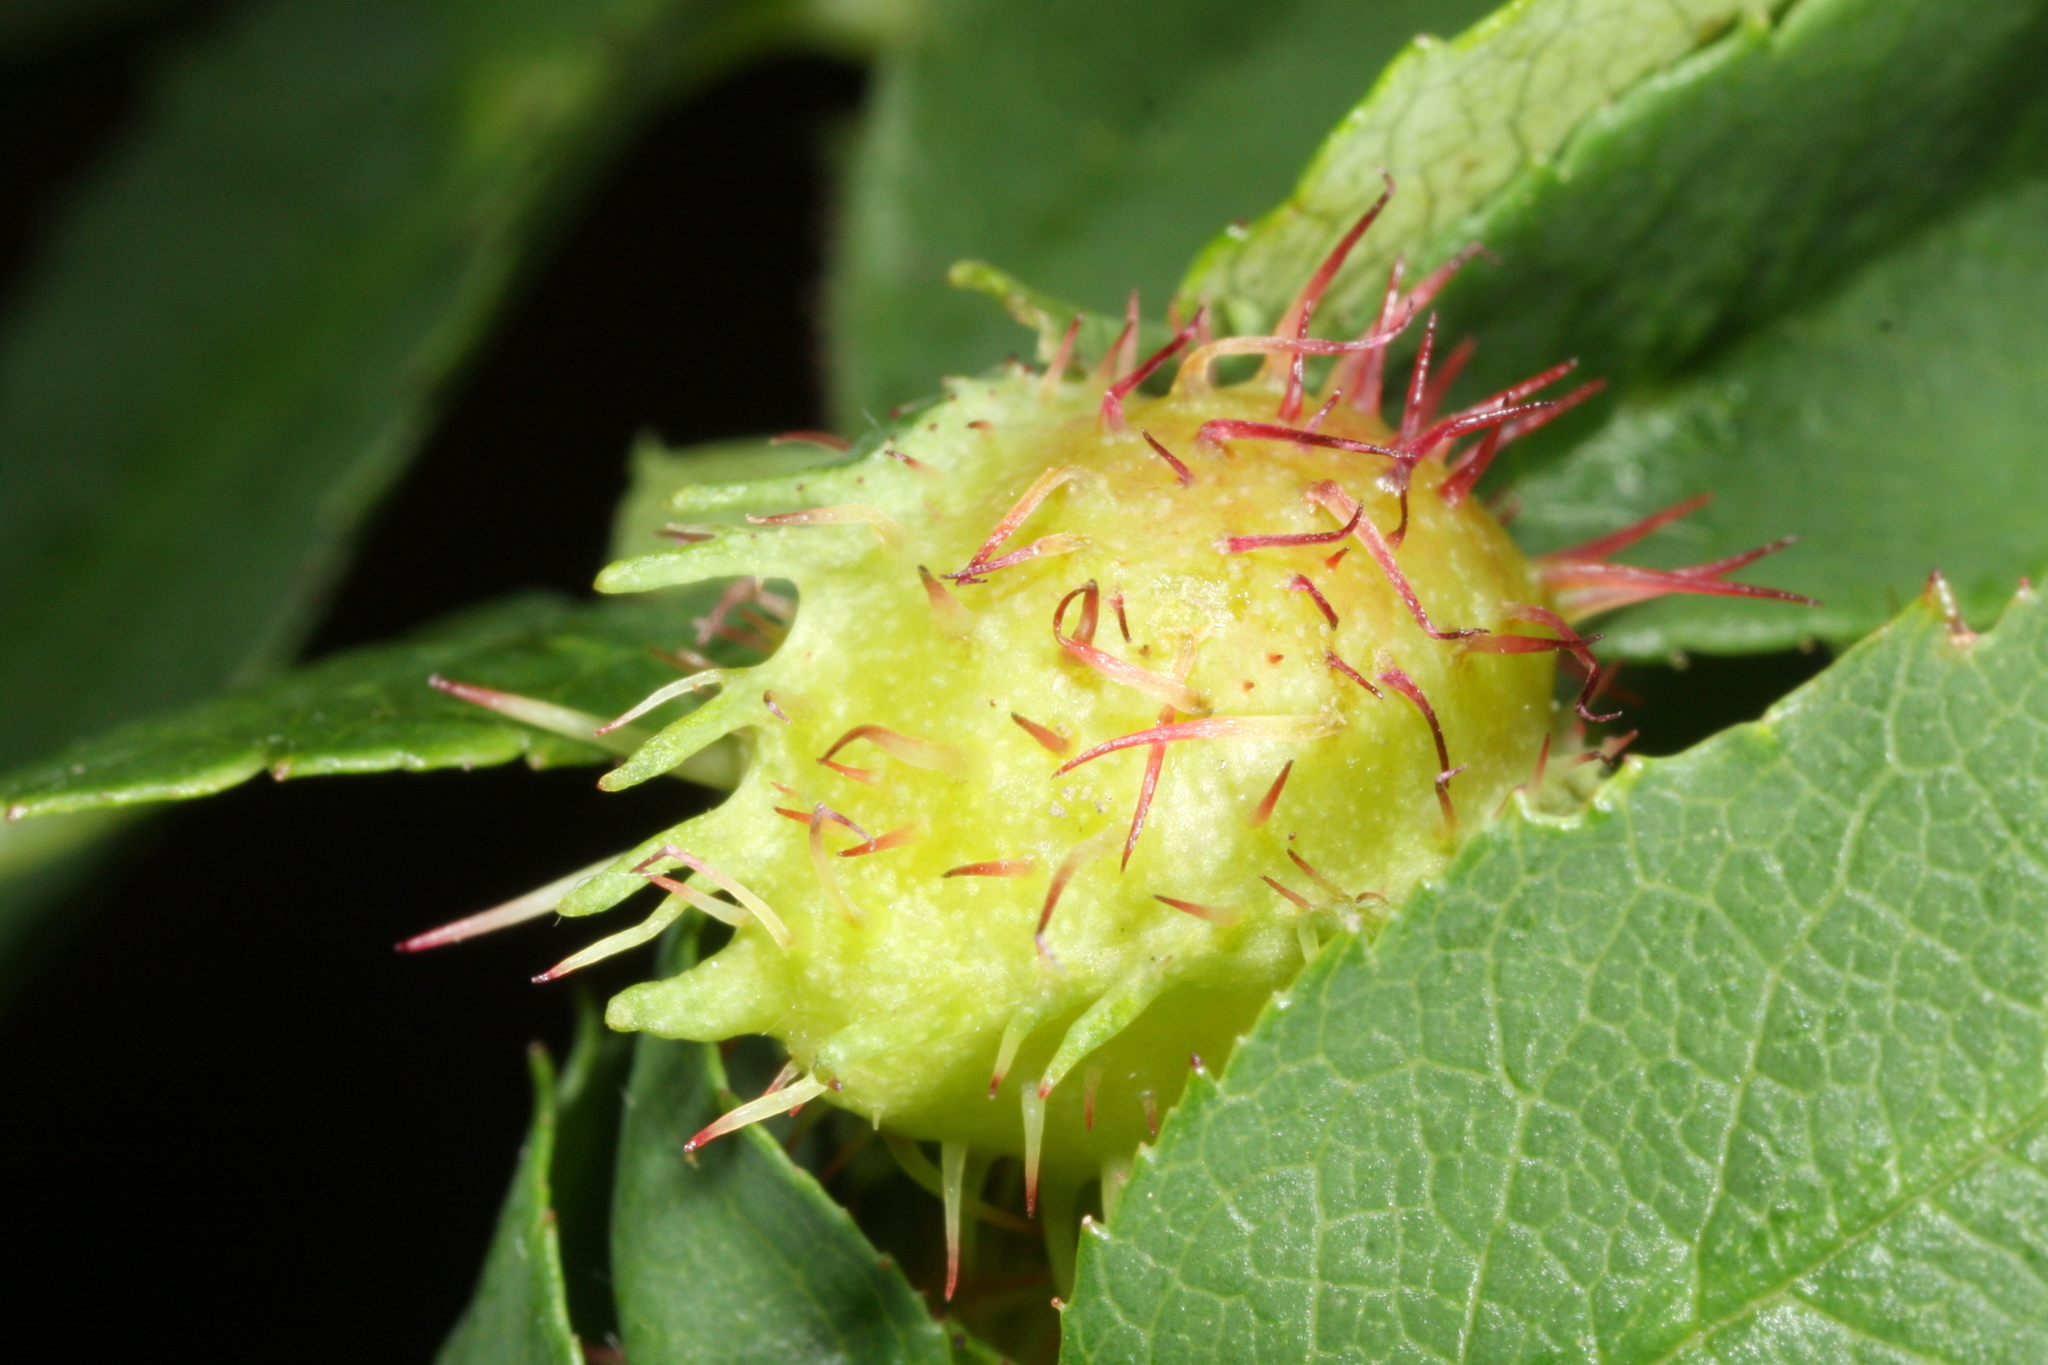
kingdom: Animalia
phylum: Arthropoda
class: Insecta
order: Hymenoptera
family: Cynipidae
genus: Diplolepis
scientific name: Diplolepis spinosissimae
